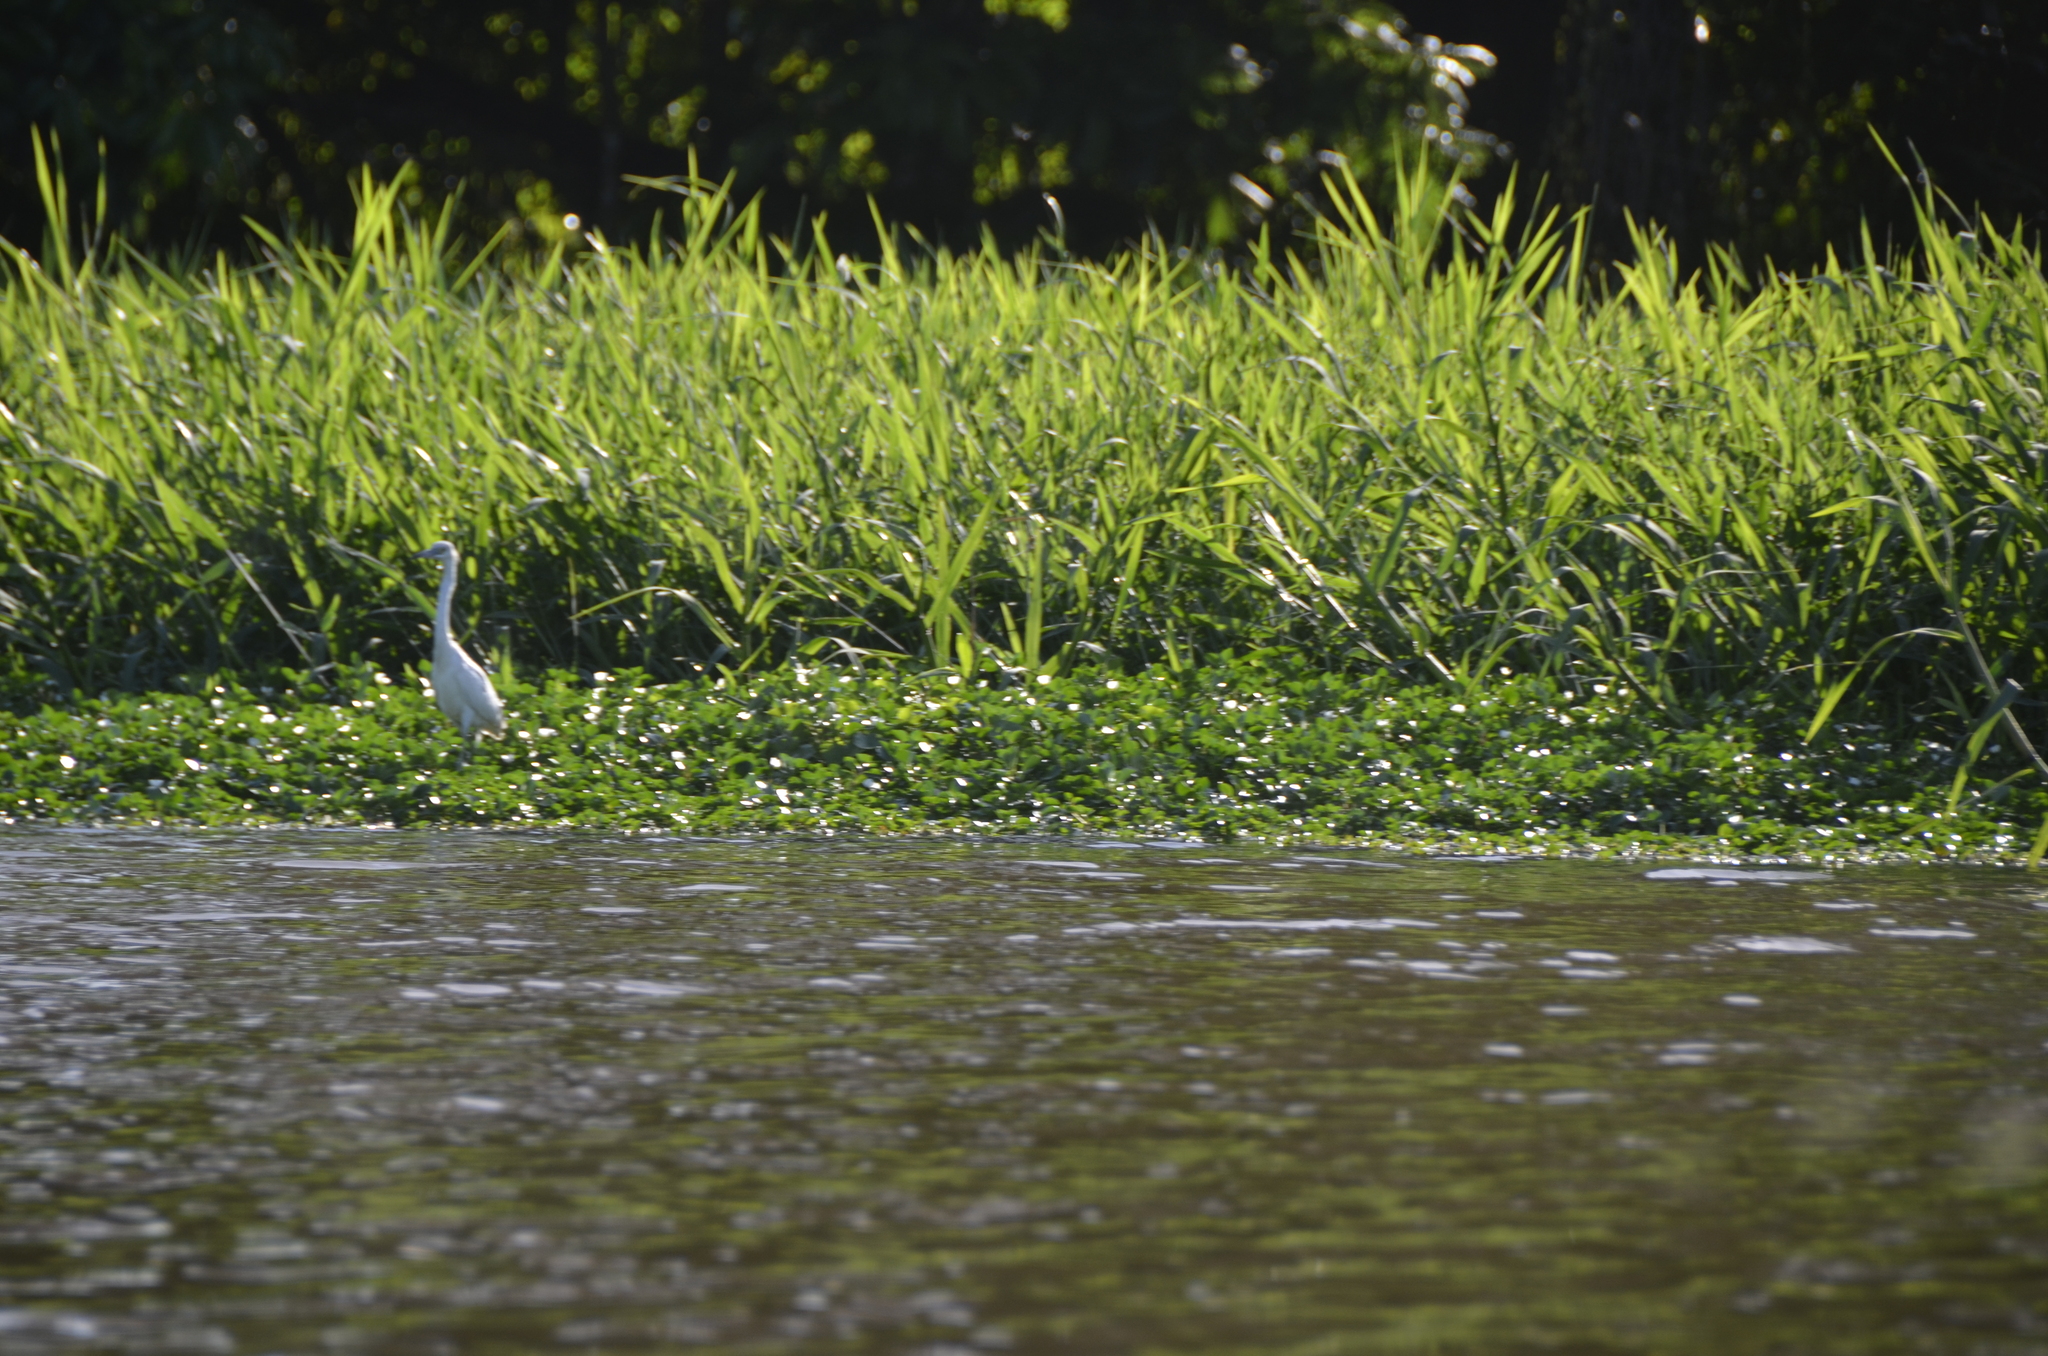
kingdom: Animalia
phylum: Chordata
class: Aves
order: Pelecaniformes
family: Ardeidae
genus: Egretta
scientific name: Egretta caerulea
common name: Little blue heron
